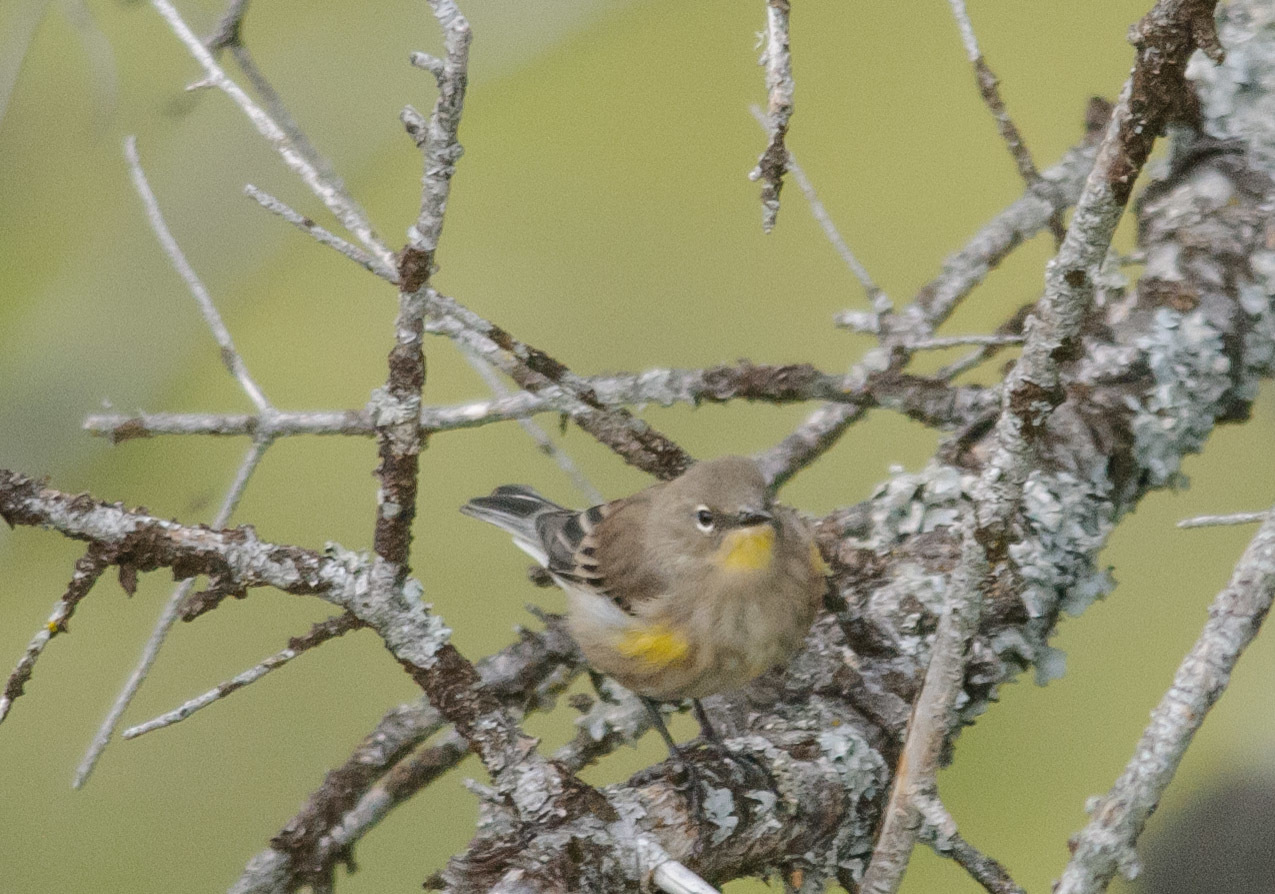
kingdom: Animalia
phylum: Chordata
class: Aves
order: Passeriformes
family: Parulidae
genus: Setophaga
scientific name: Setophaga coronata
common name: Myrtle warbler
